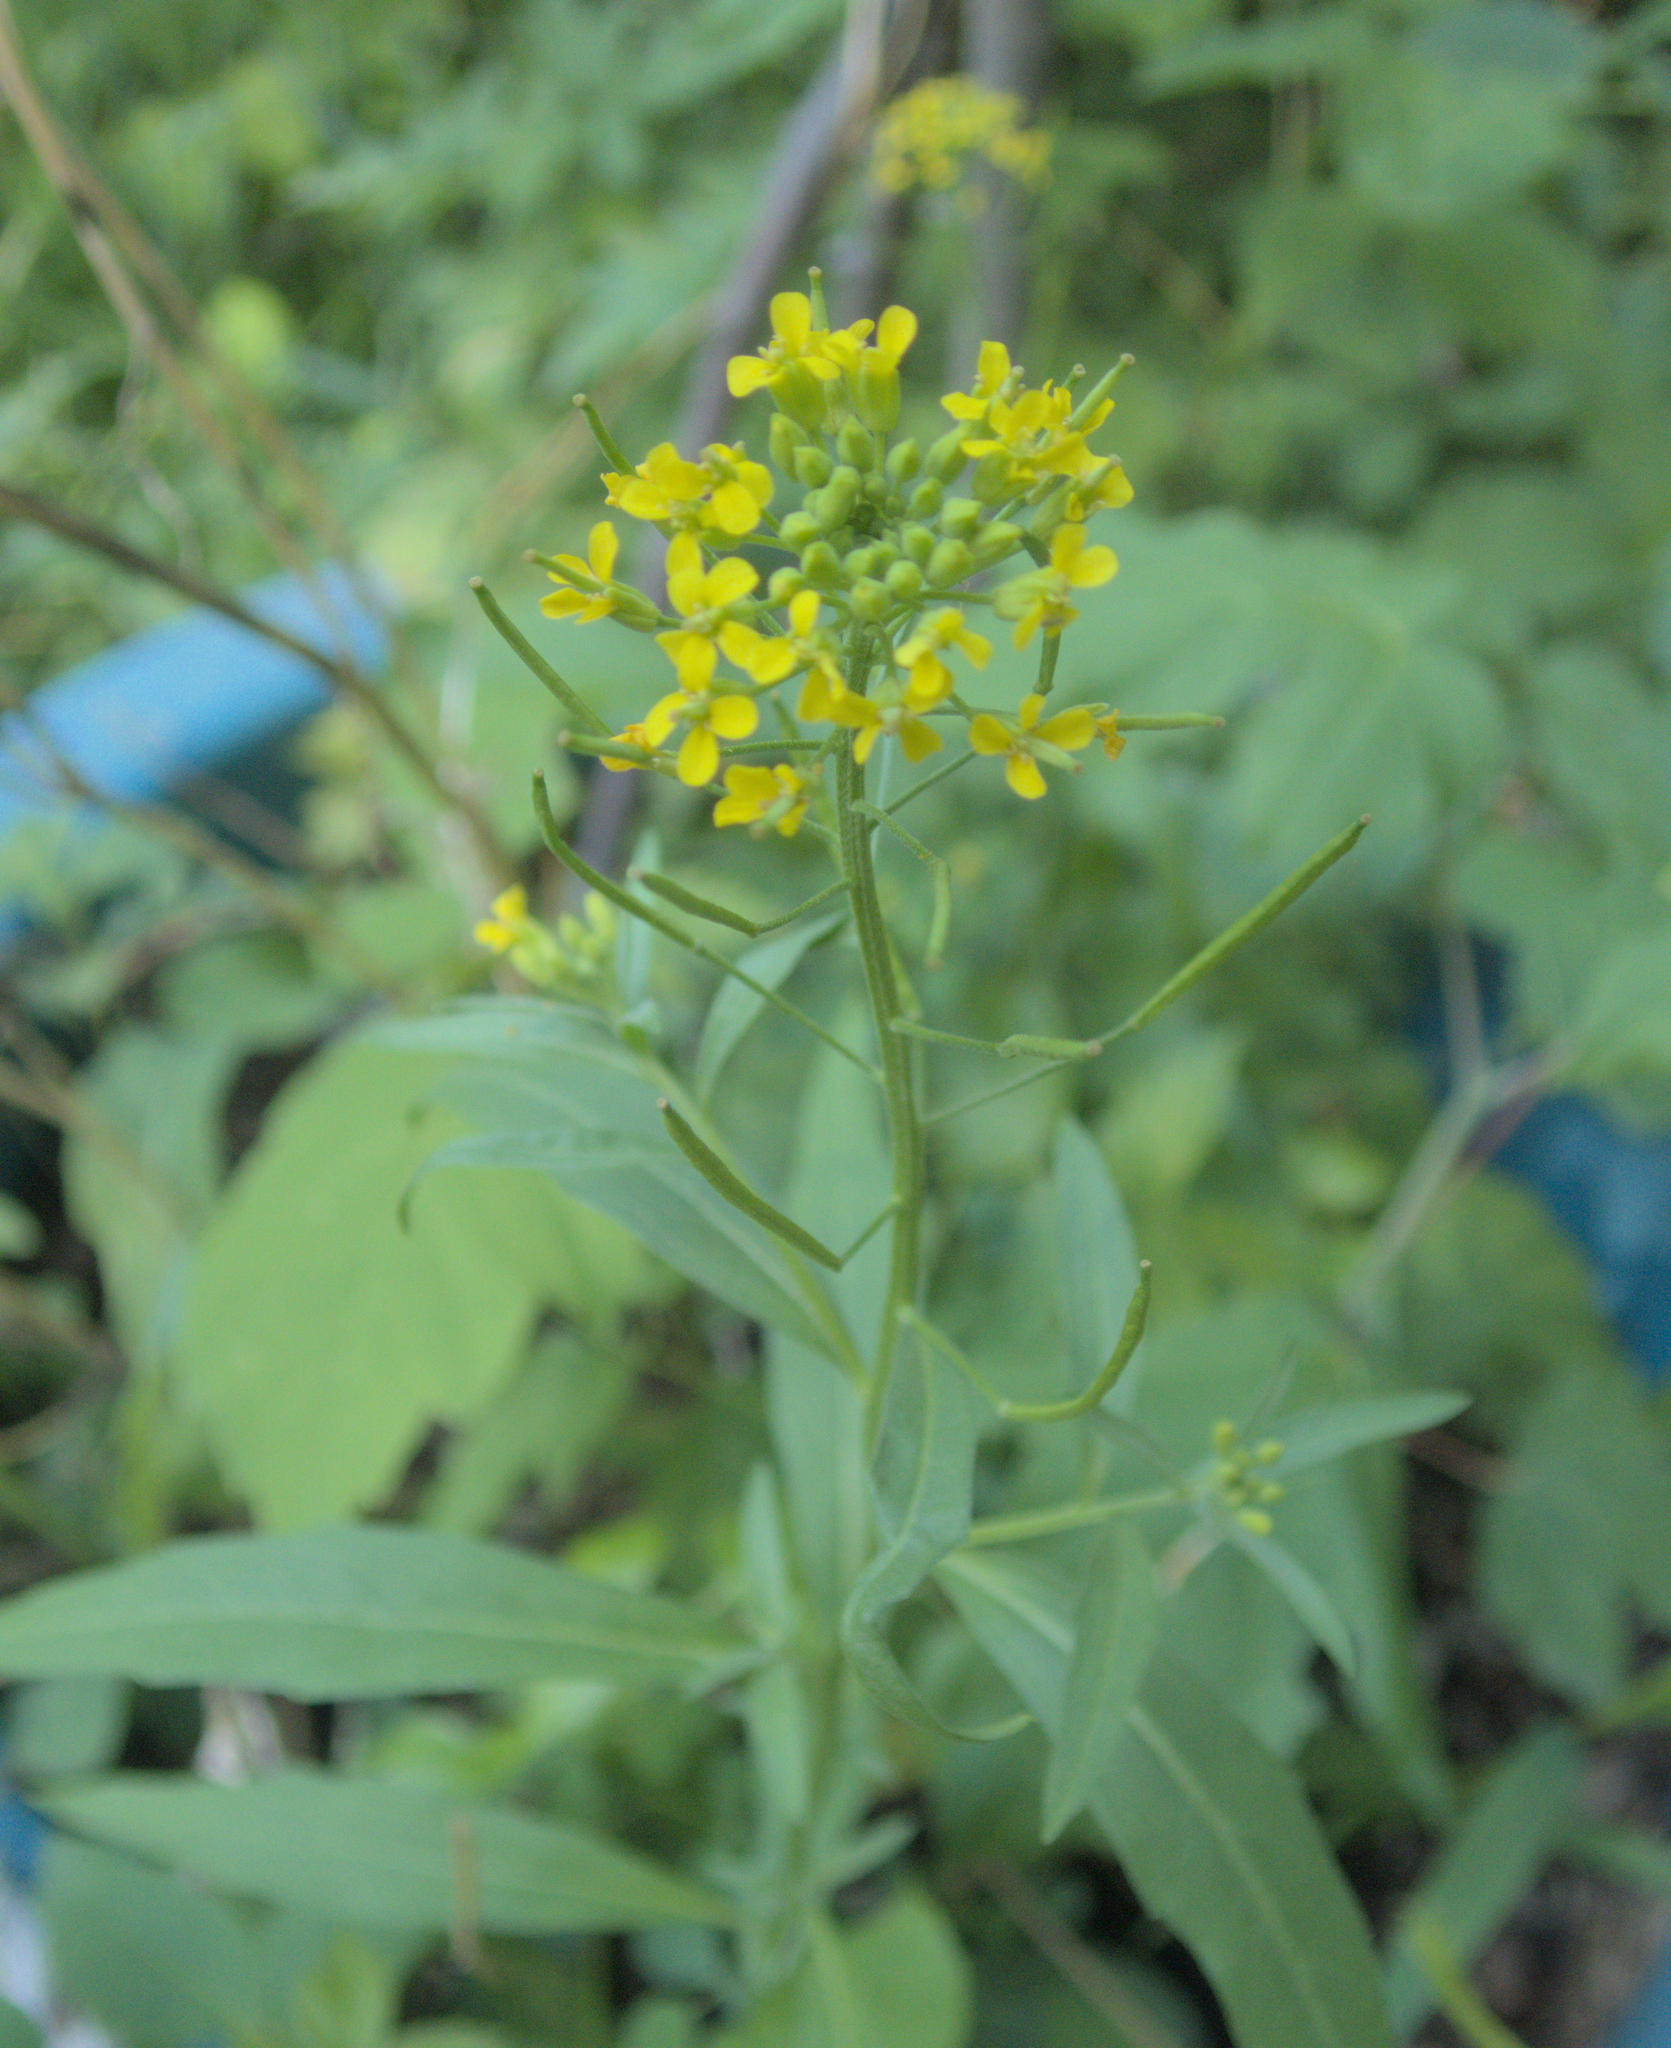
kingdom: Plantae
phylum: Tracheophyta
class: Magnoliopsida
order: Brassicales
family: Brassicaceae
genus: Erysimum
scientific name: Erysimum cheiranthoides
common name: Treacle mustard
